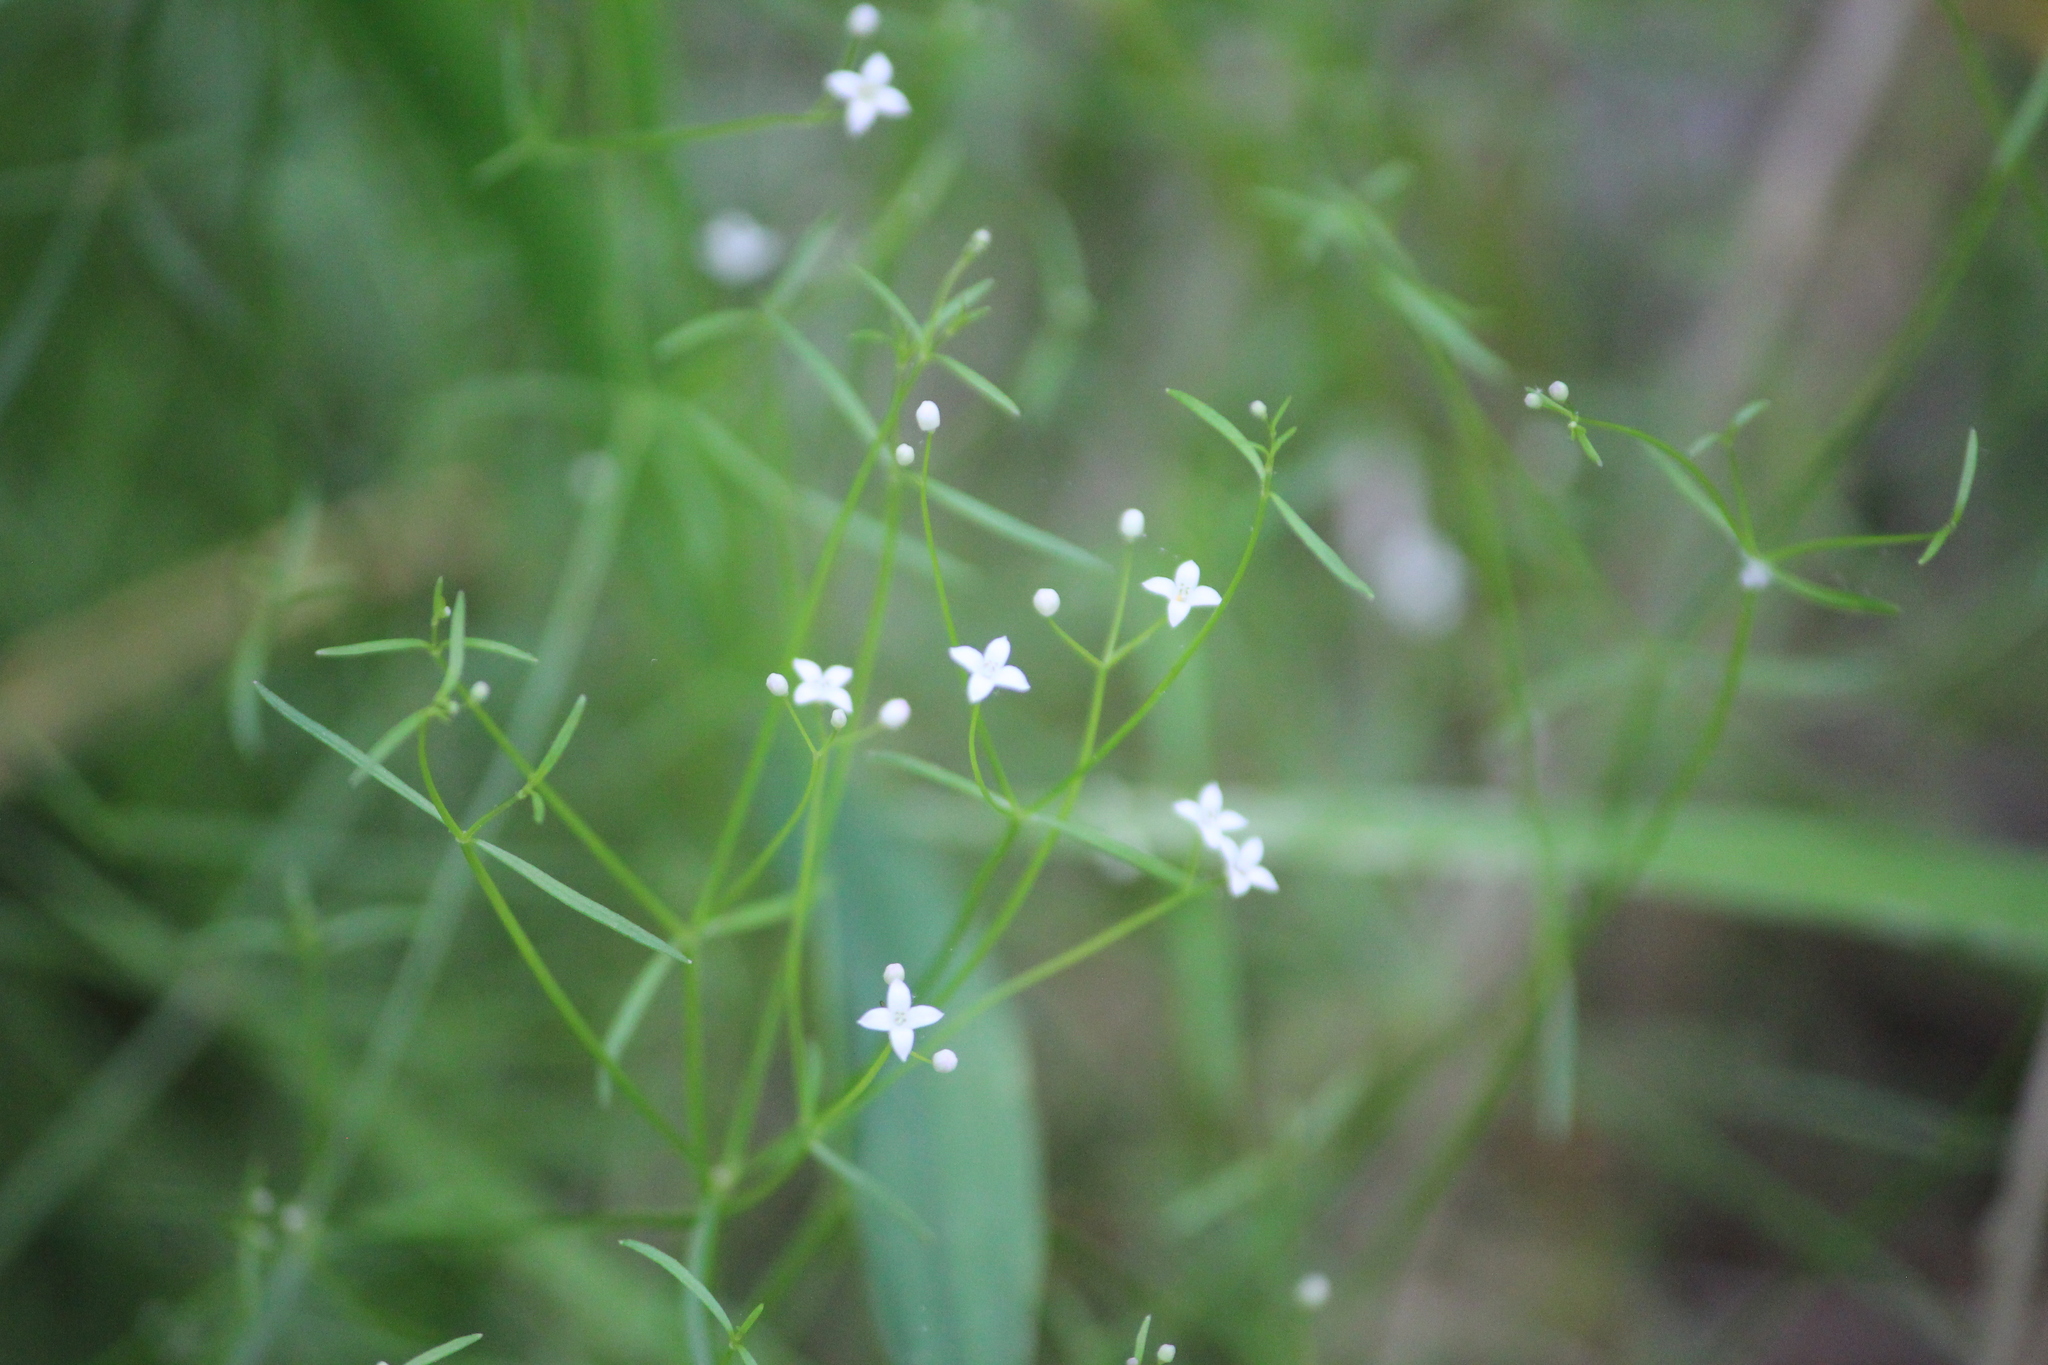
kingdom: Plantae
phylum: Tracheophyta
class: Magnoliopsida
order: Gentianales
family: Rubiaceae
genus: Galium
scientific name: Galium obtusum
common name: Blunt-leaved bedstraw
